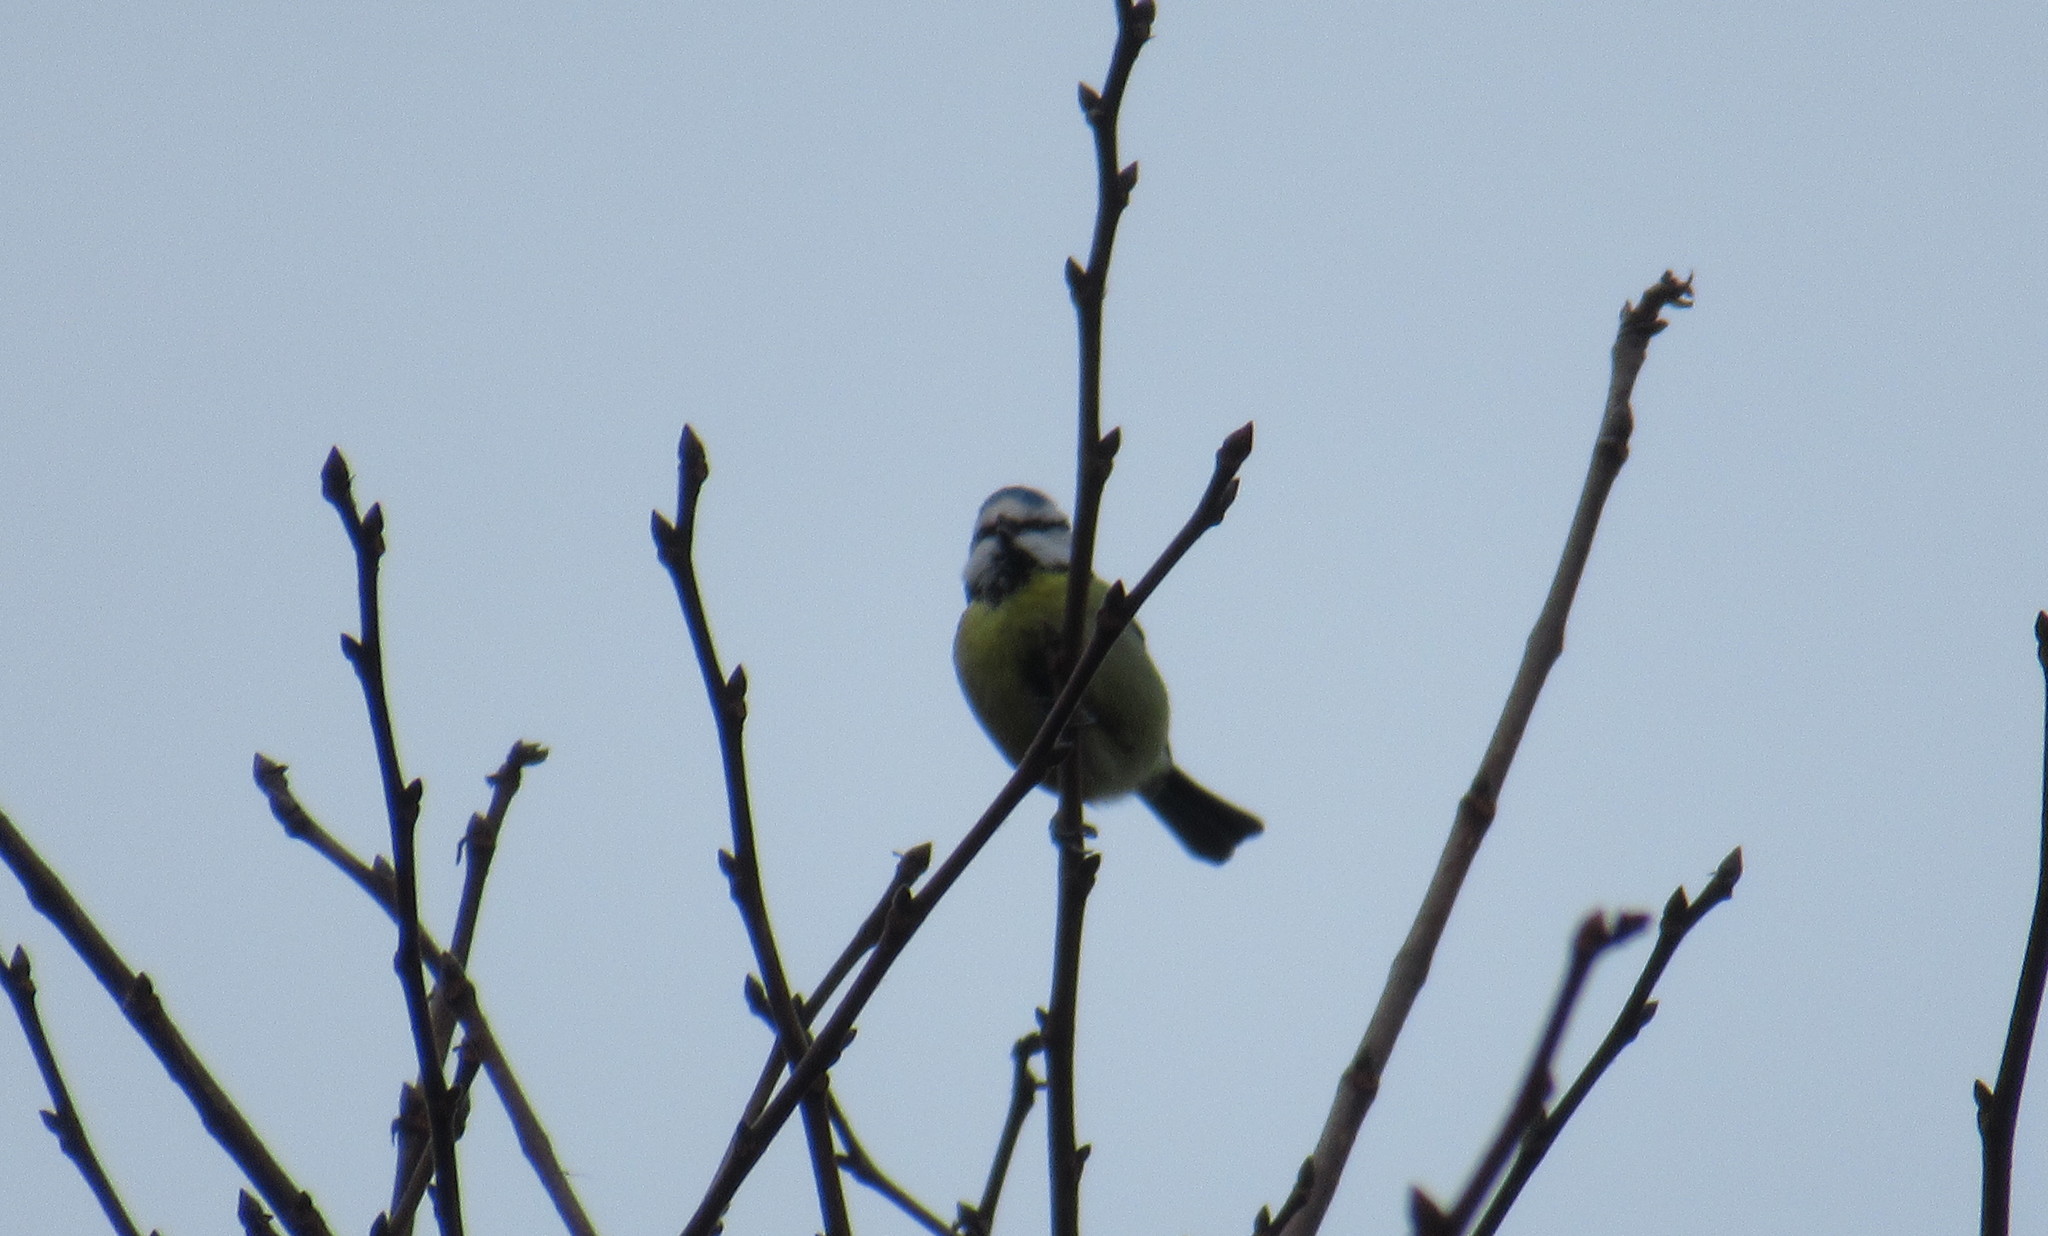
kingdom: Animalia
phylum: Chordata
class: Aves
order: Passeriformes
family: Paridae
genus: Cyanistes
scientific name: Cyanistes caeruleus
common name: Eurasian blue tit
